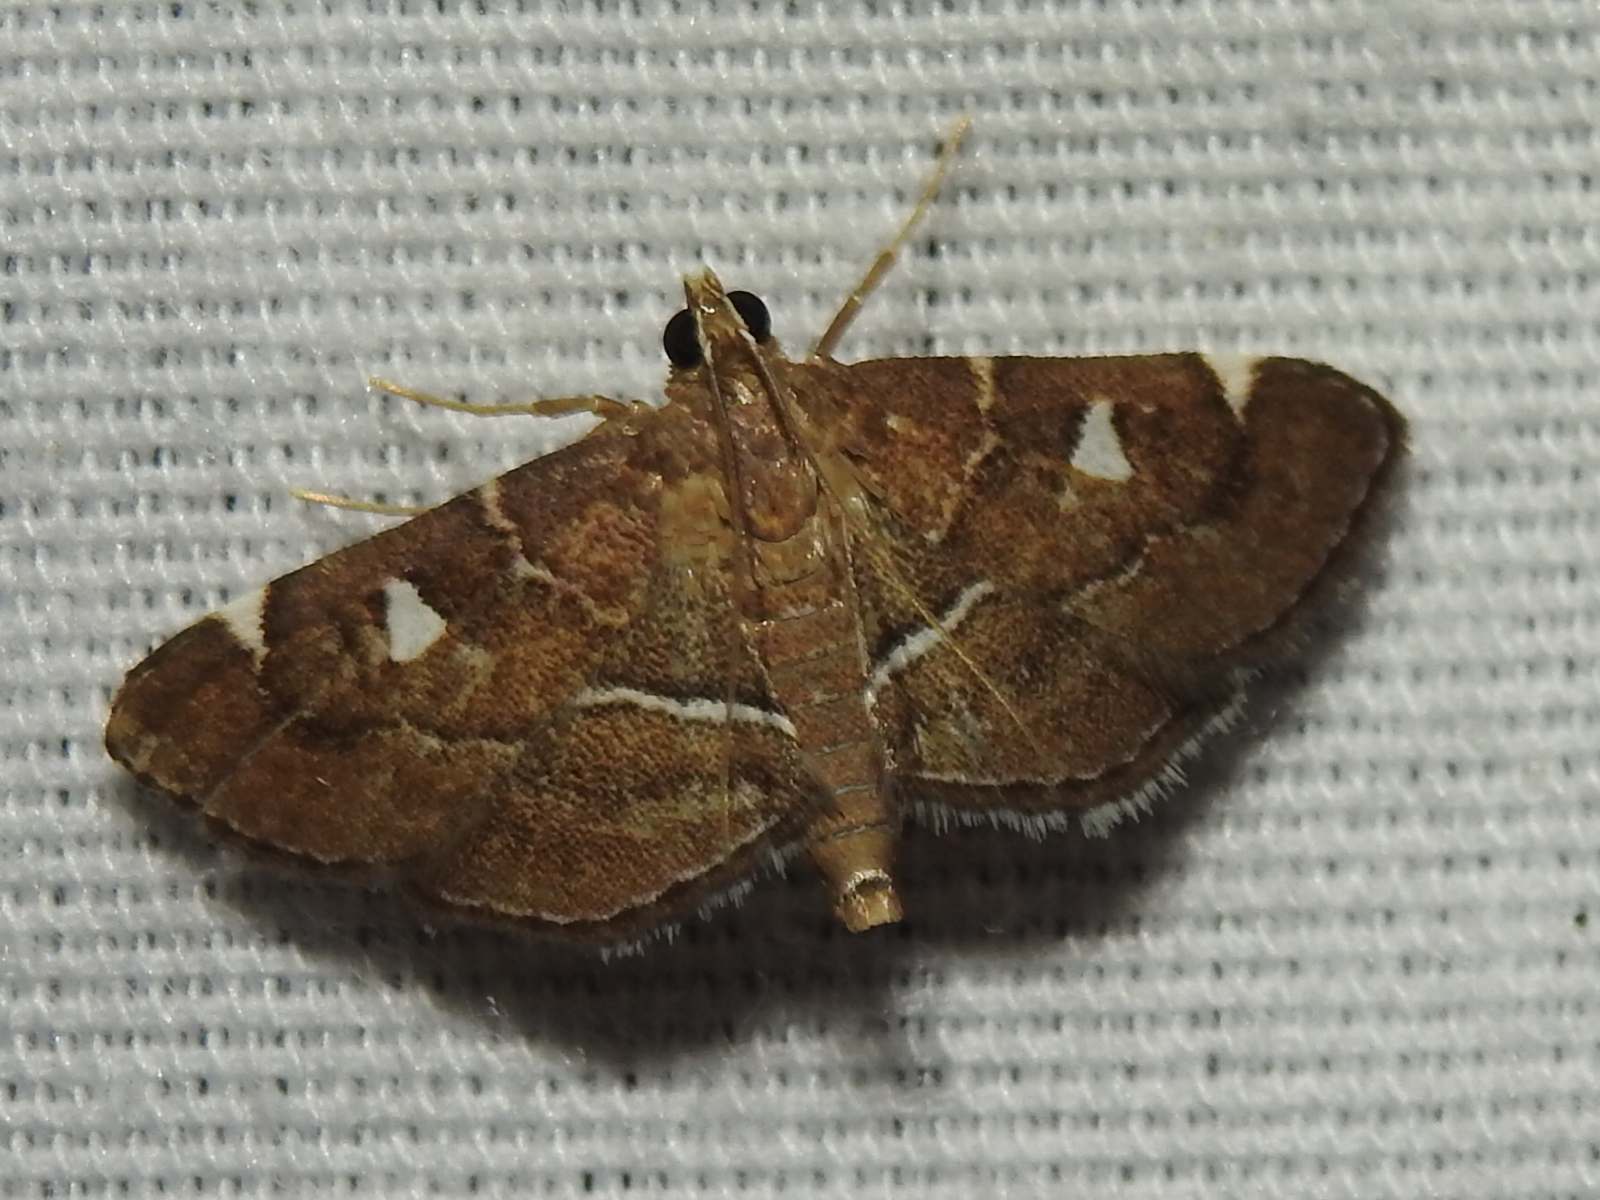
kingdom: Animalia
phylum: Arthropoda
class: Insecta
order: Lepidoptera
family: Crambidae
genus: Lamprosema
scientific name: Lamprosema victoriae
